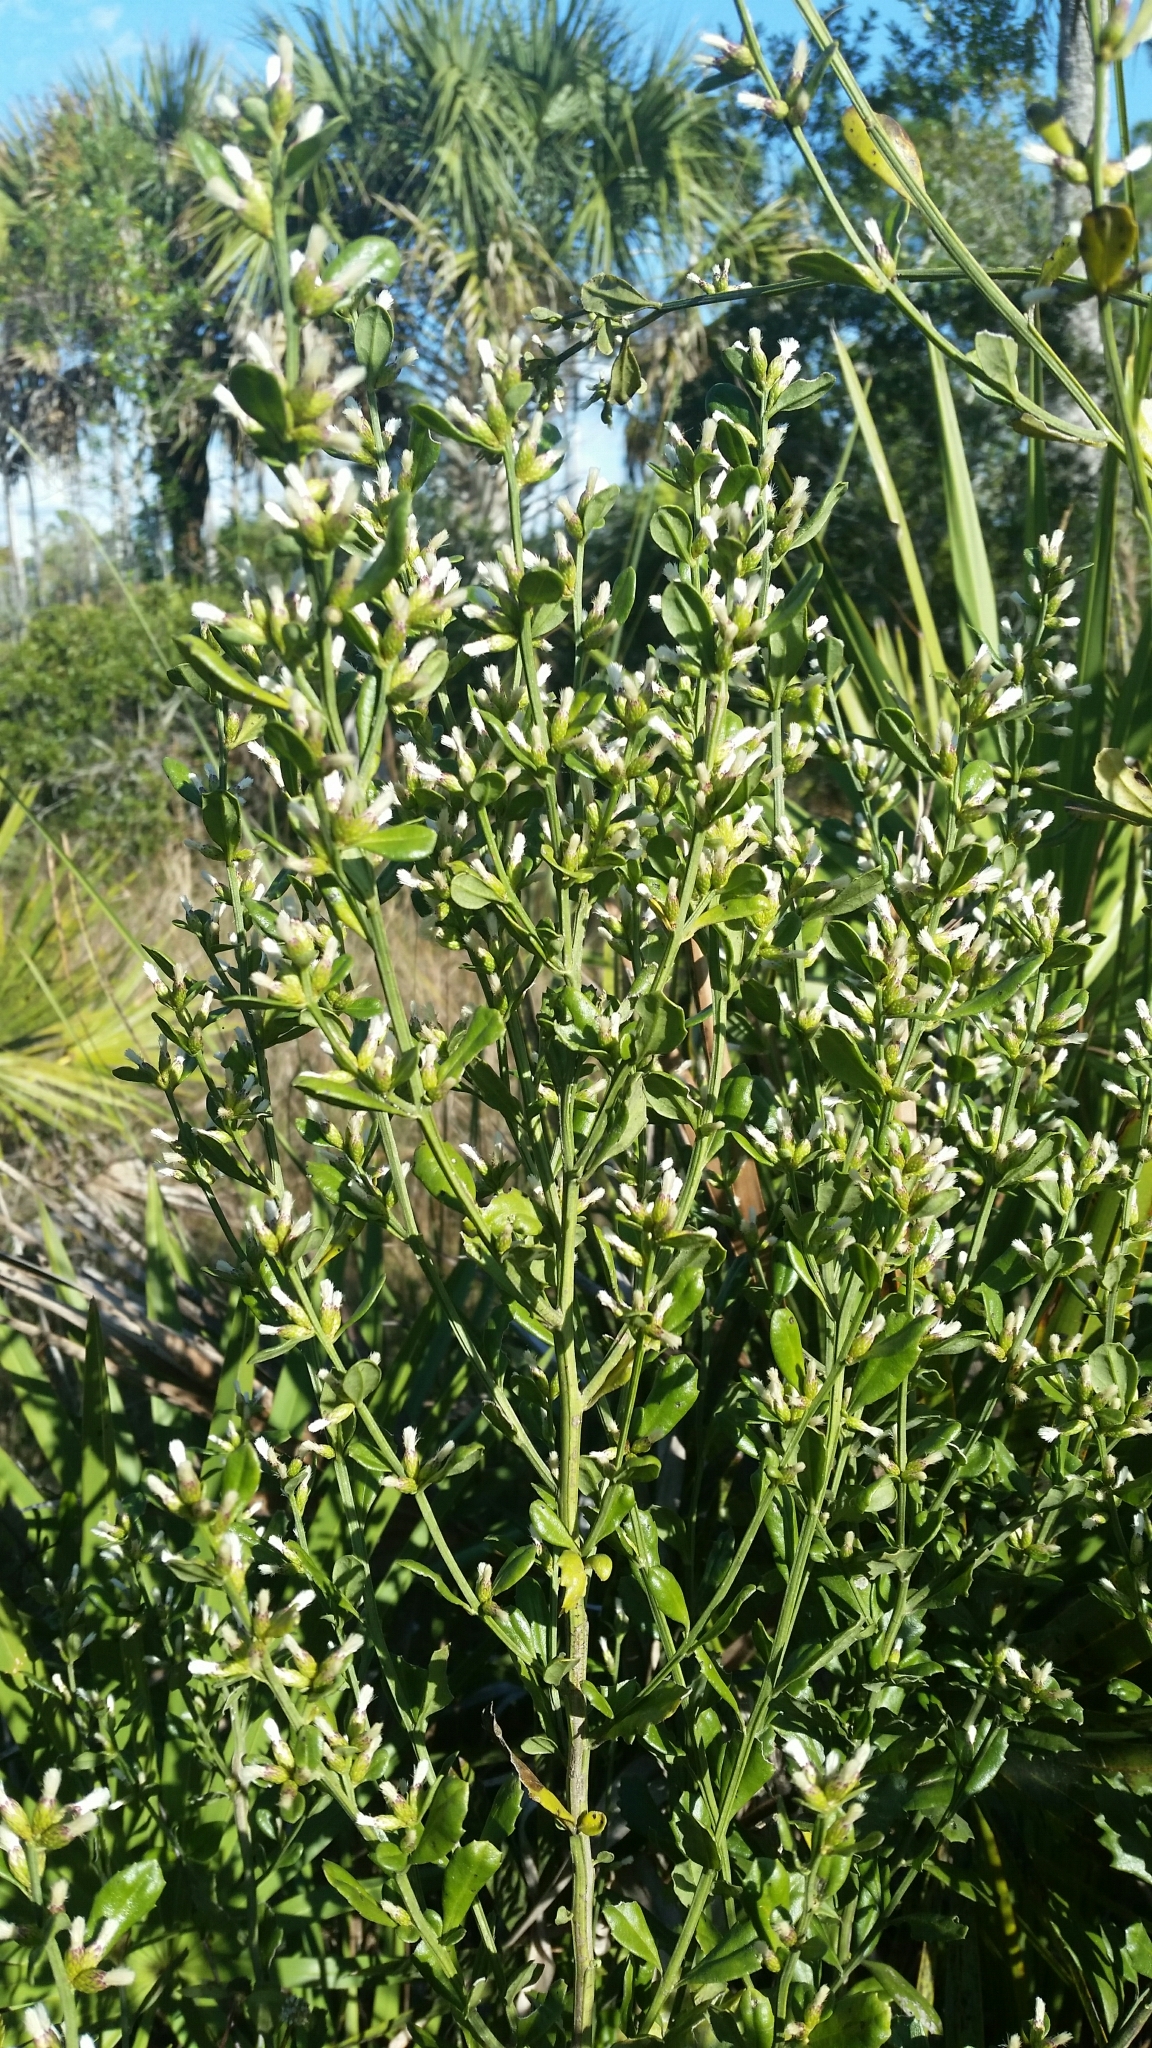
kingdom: Plantae
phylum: Tracheophyta
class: Magnoliopsida
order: Asterales
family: Asteraceae
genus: Baccharis
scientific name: Baccharis glomeruliflora
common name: Silverling groundsel bush
